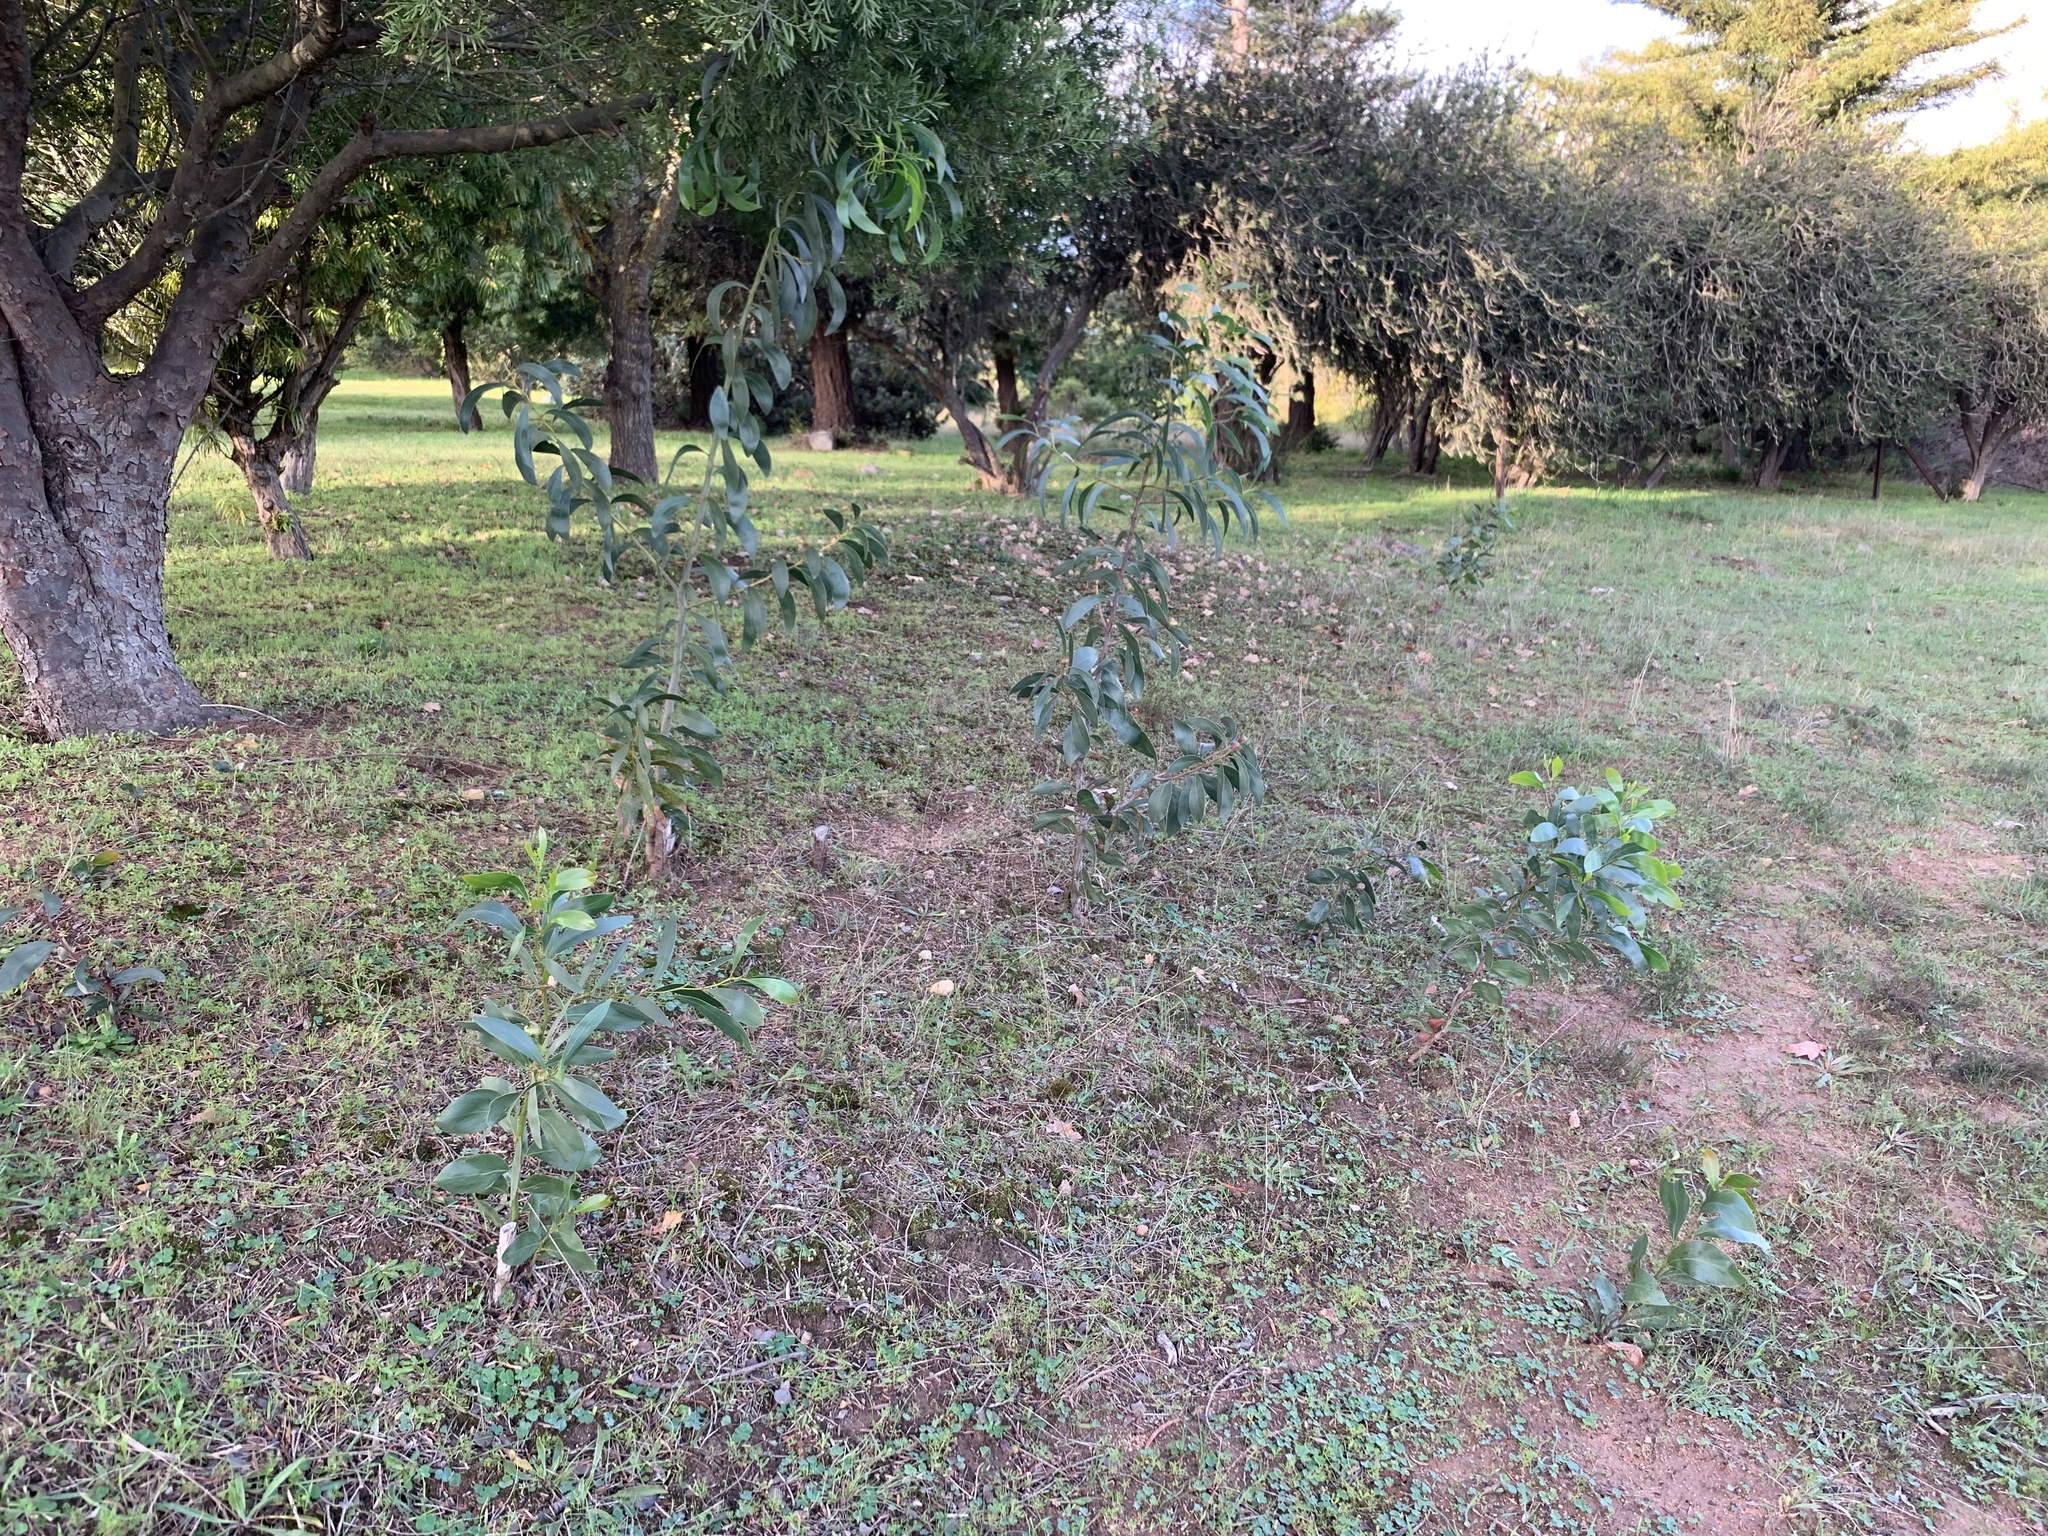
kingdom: Plantae
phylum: Tracheophyta
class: Magnoliopsida
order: Fabales
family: Fabaceae
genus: Acacia
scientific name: Acacia pycnantha
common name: Golden wattle
